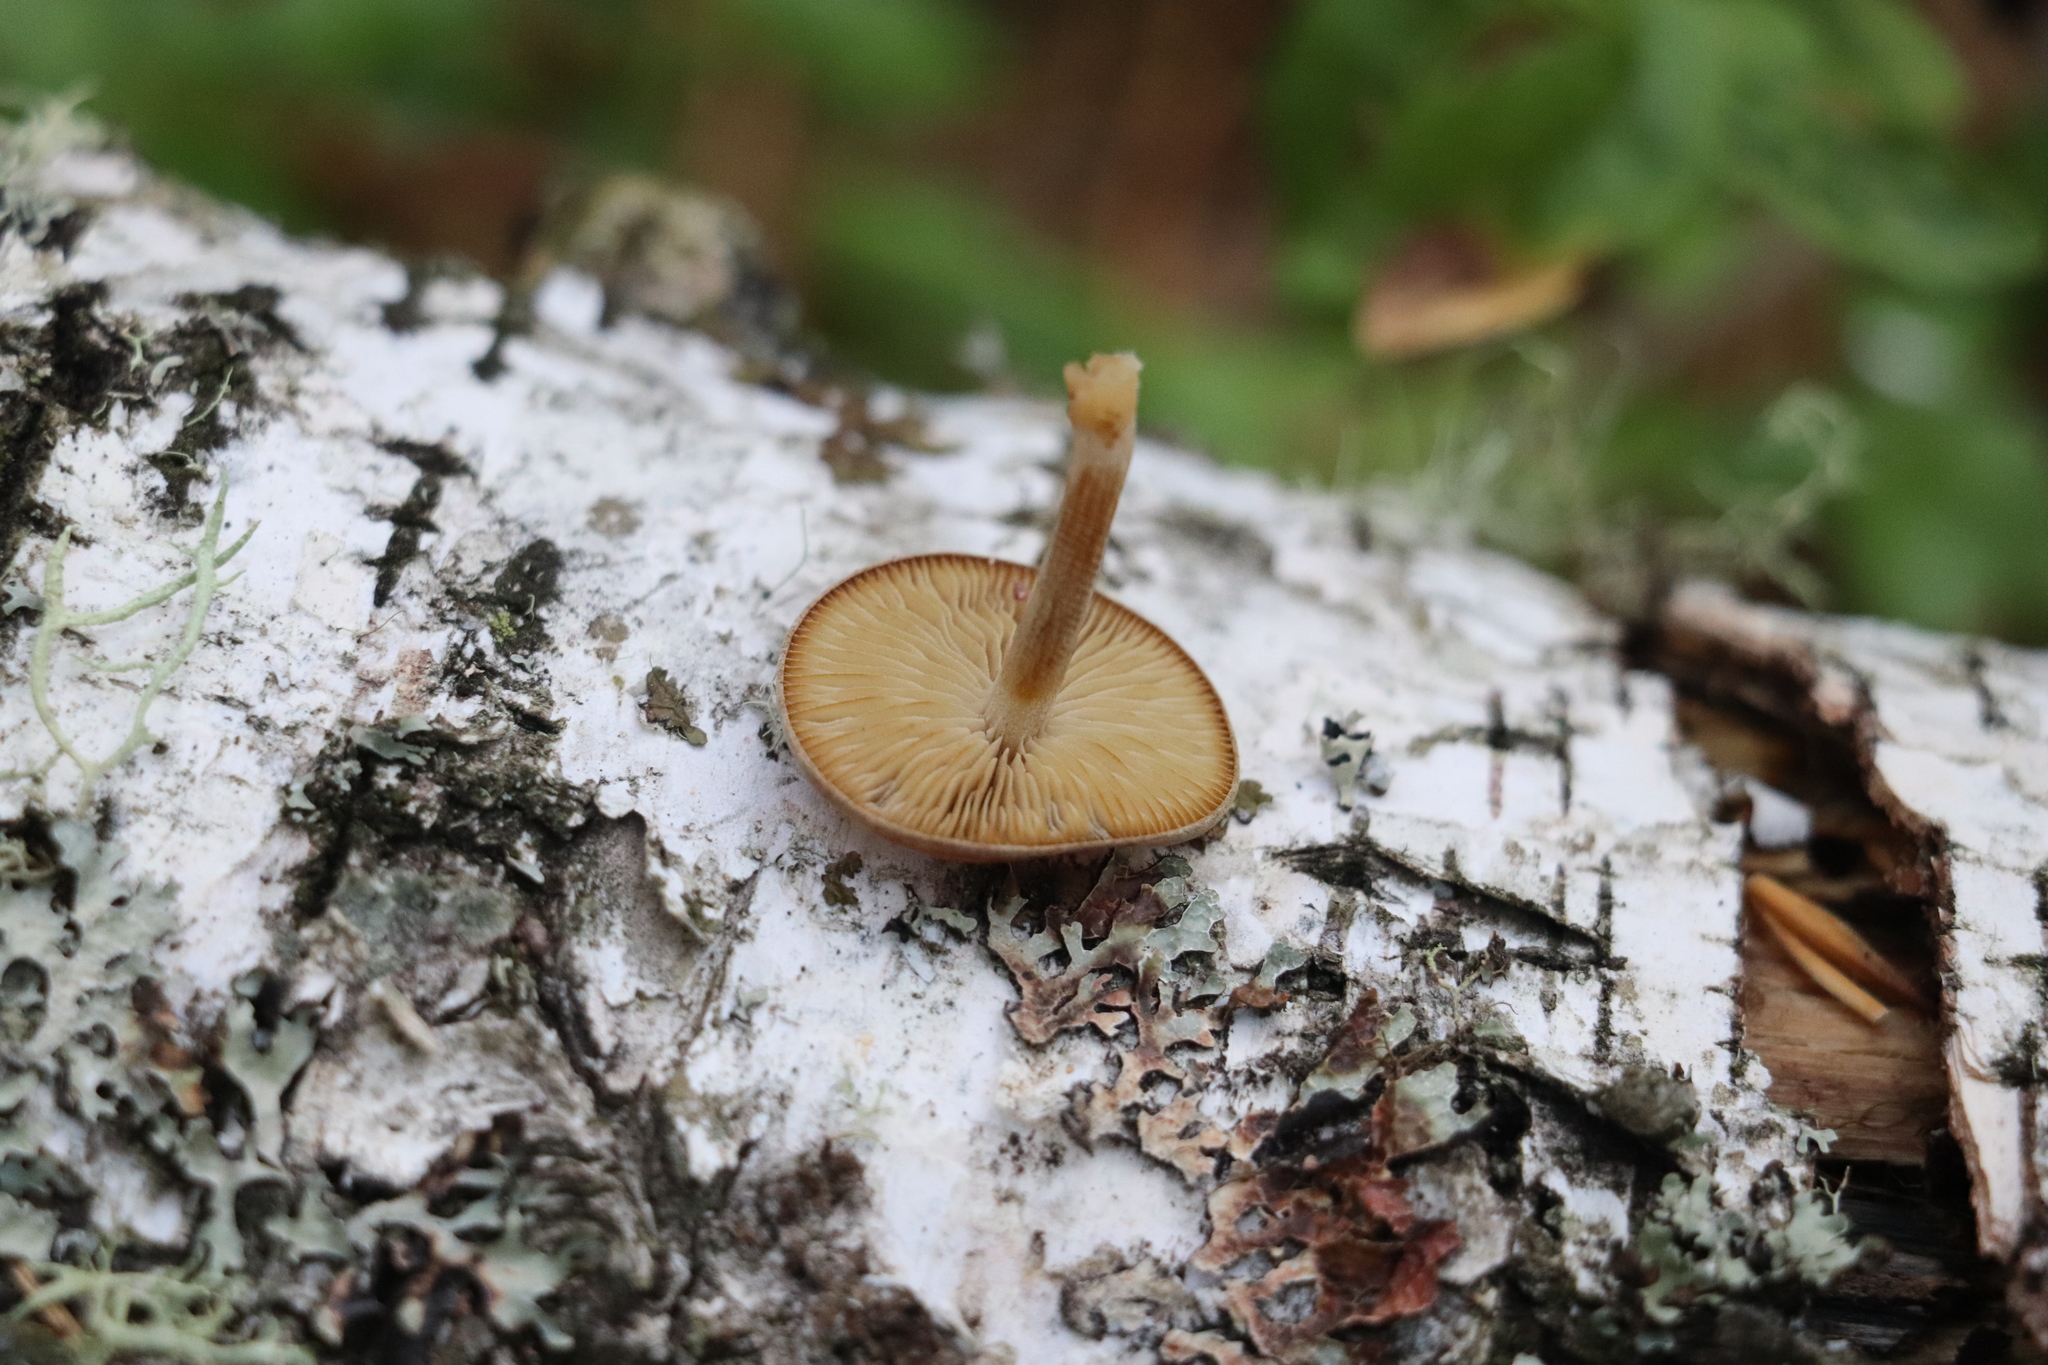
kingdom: Fungi
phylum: Basidiomycota
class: Agaricomycetes
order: Agaricales
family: Crepidotaceae
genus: Simocybe
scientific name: Simocybe sumptuosa
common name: Velvet twiglet
